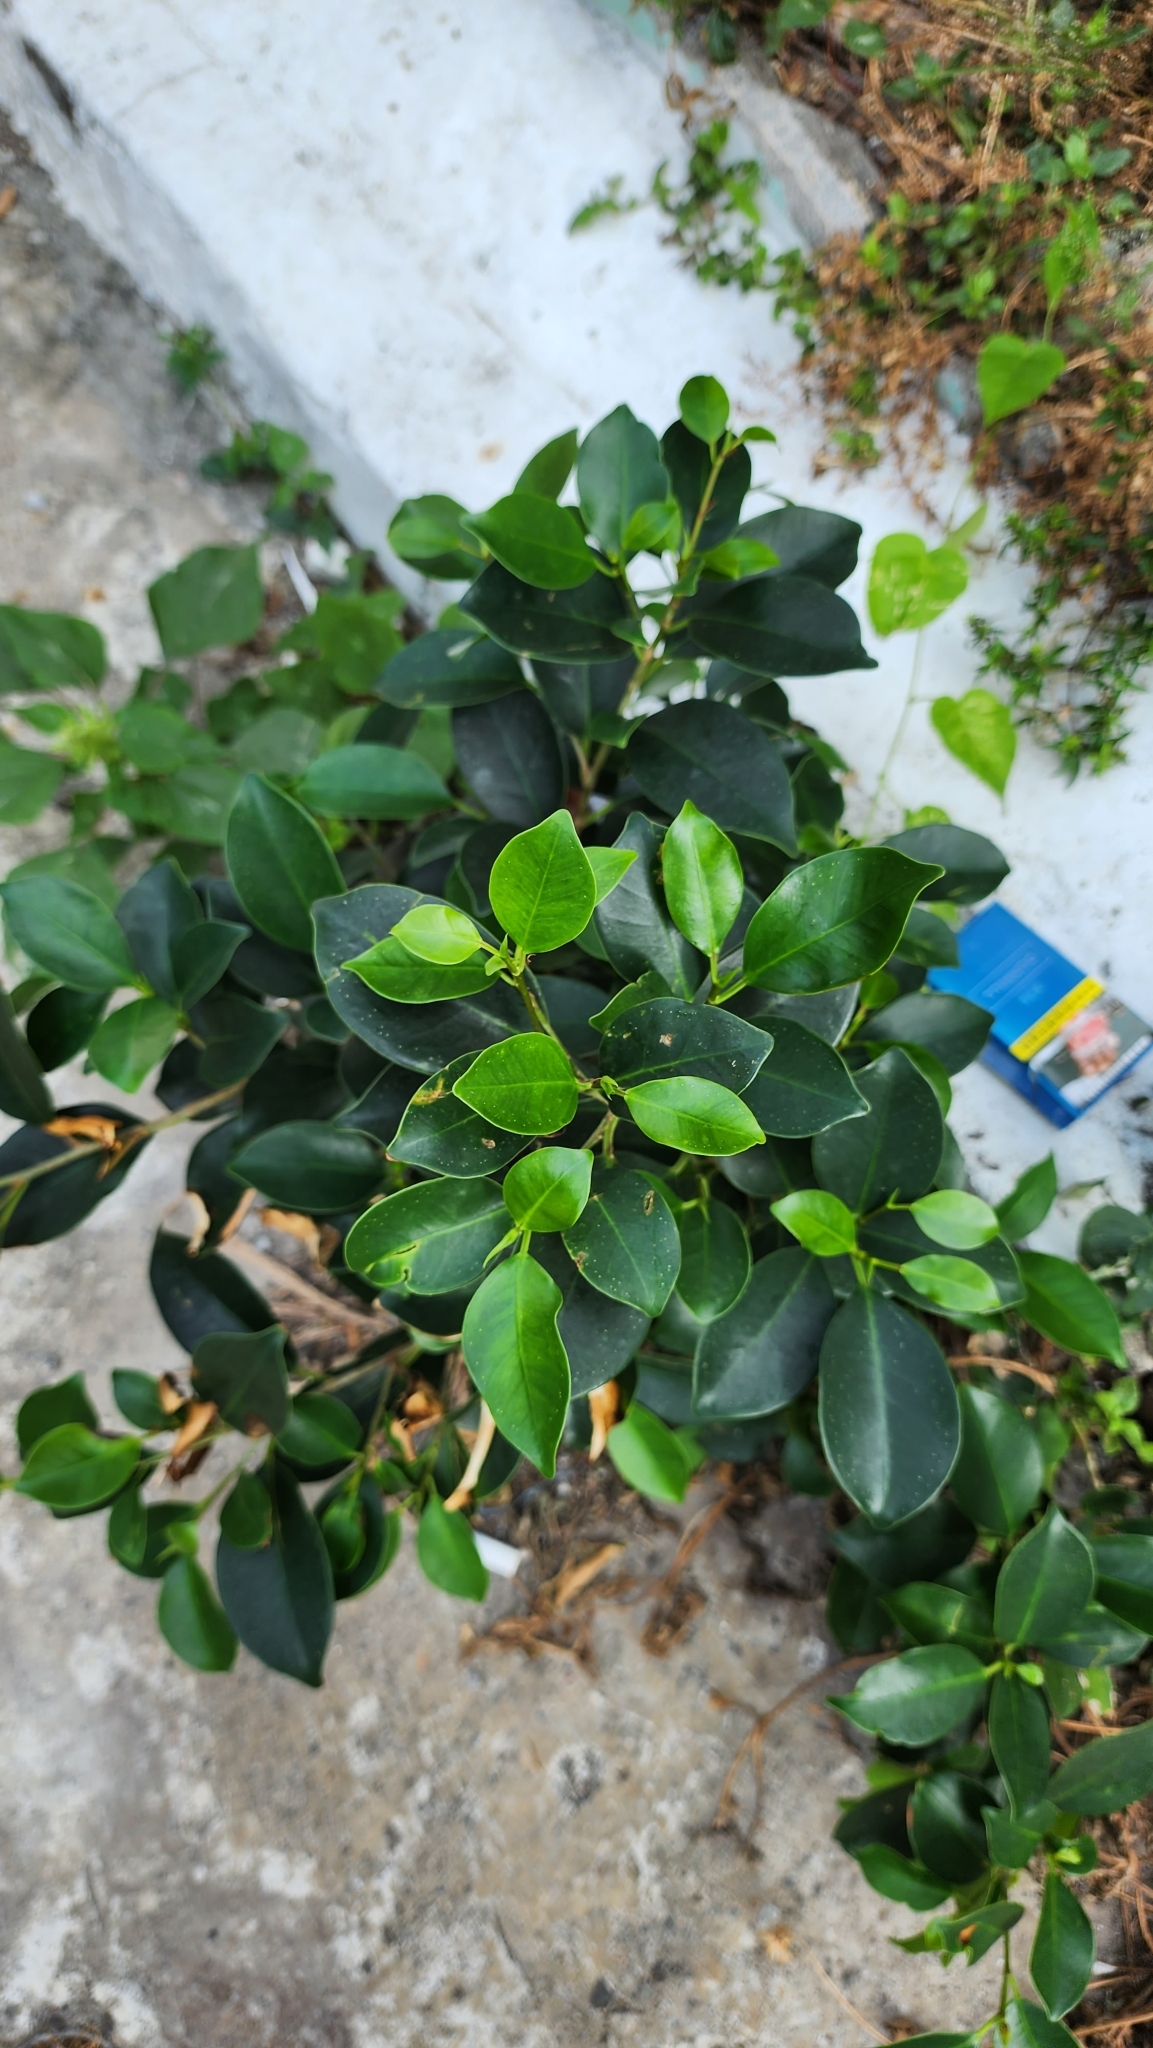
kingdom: Plantae
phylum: Tracheophyta
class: Magnoliopsida
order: Rosales
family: Moraceae
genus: Ficus
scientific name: Ficus microcarpa
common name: Chinese banyan
